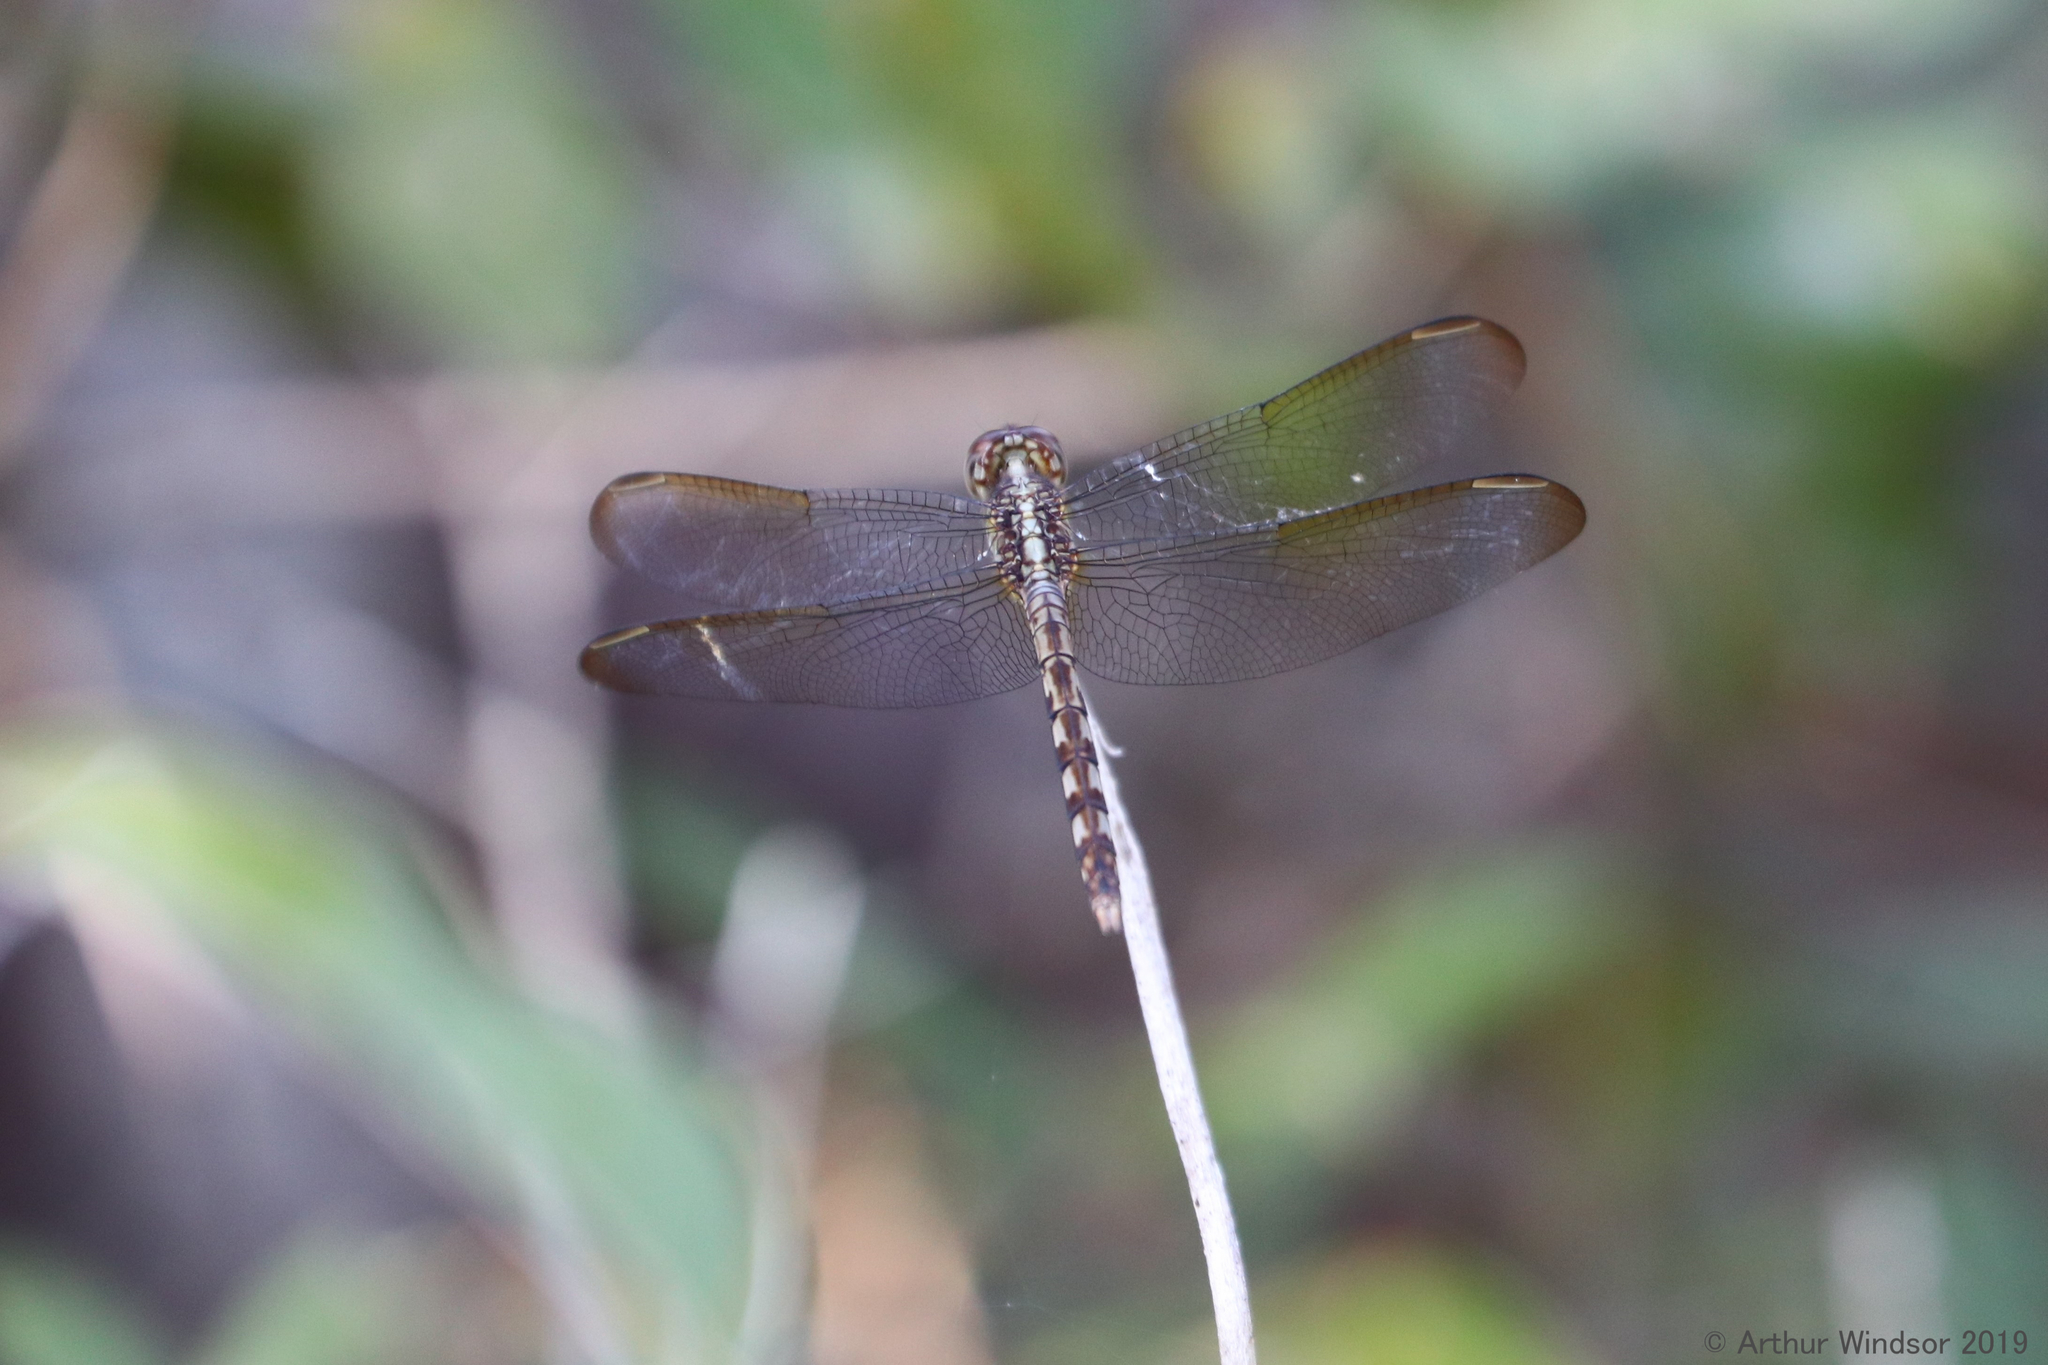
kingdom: Animalia
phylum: Arthropoda
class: Insecta
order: Odonata
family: Libellulidae
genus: Erythrodiplax
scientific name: Erythrodiplax umbrata
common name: Band-winged dragonlet
